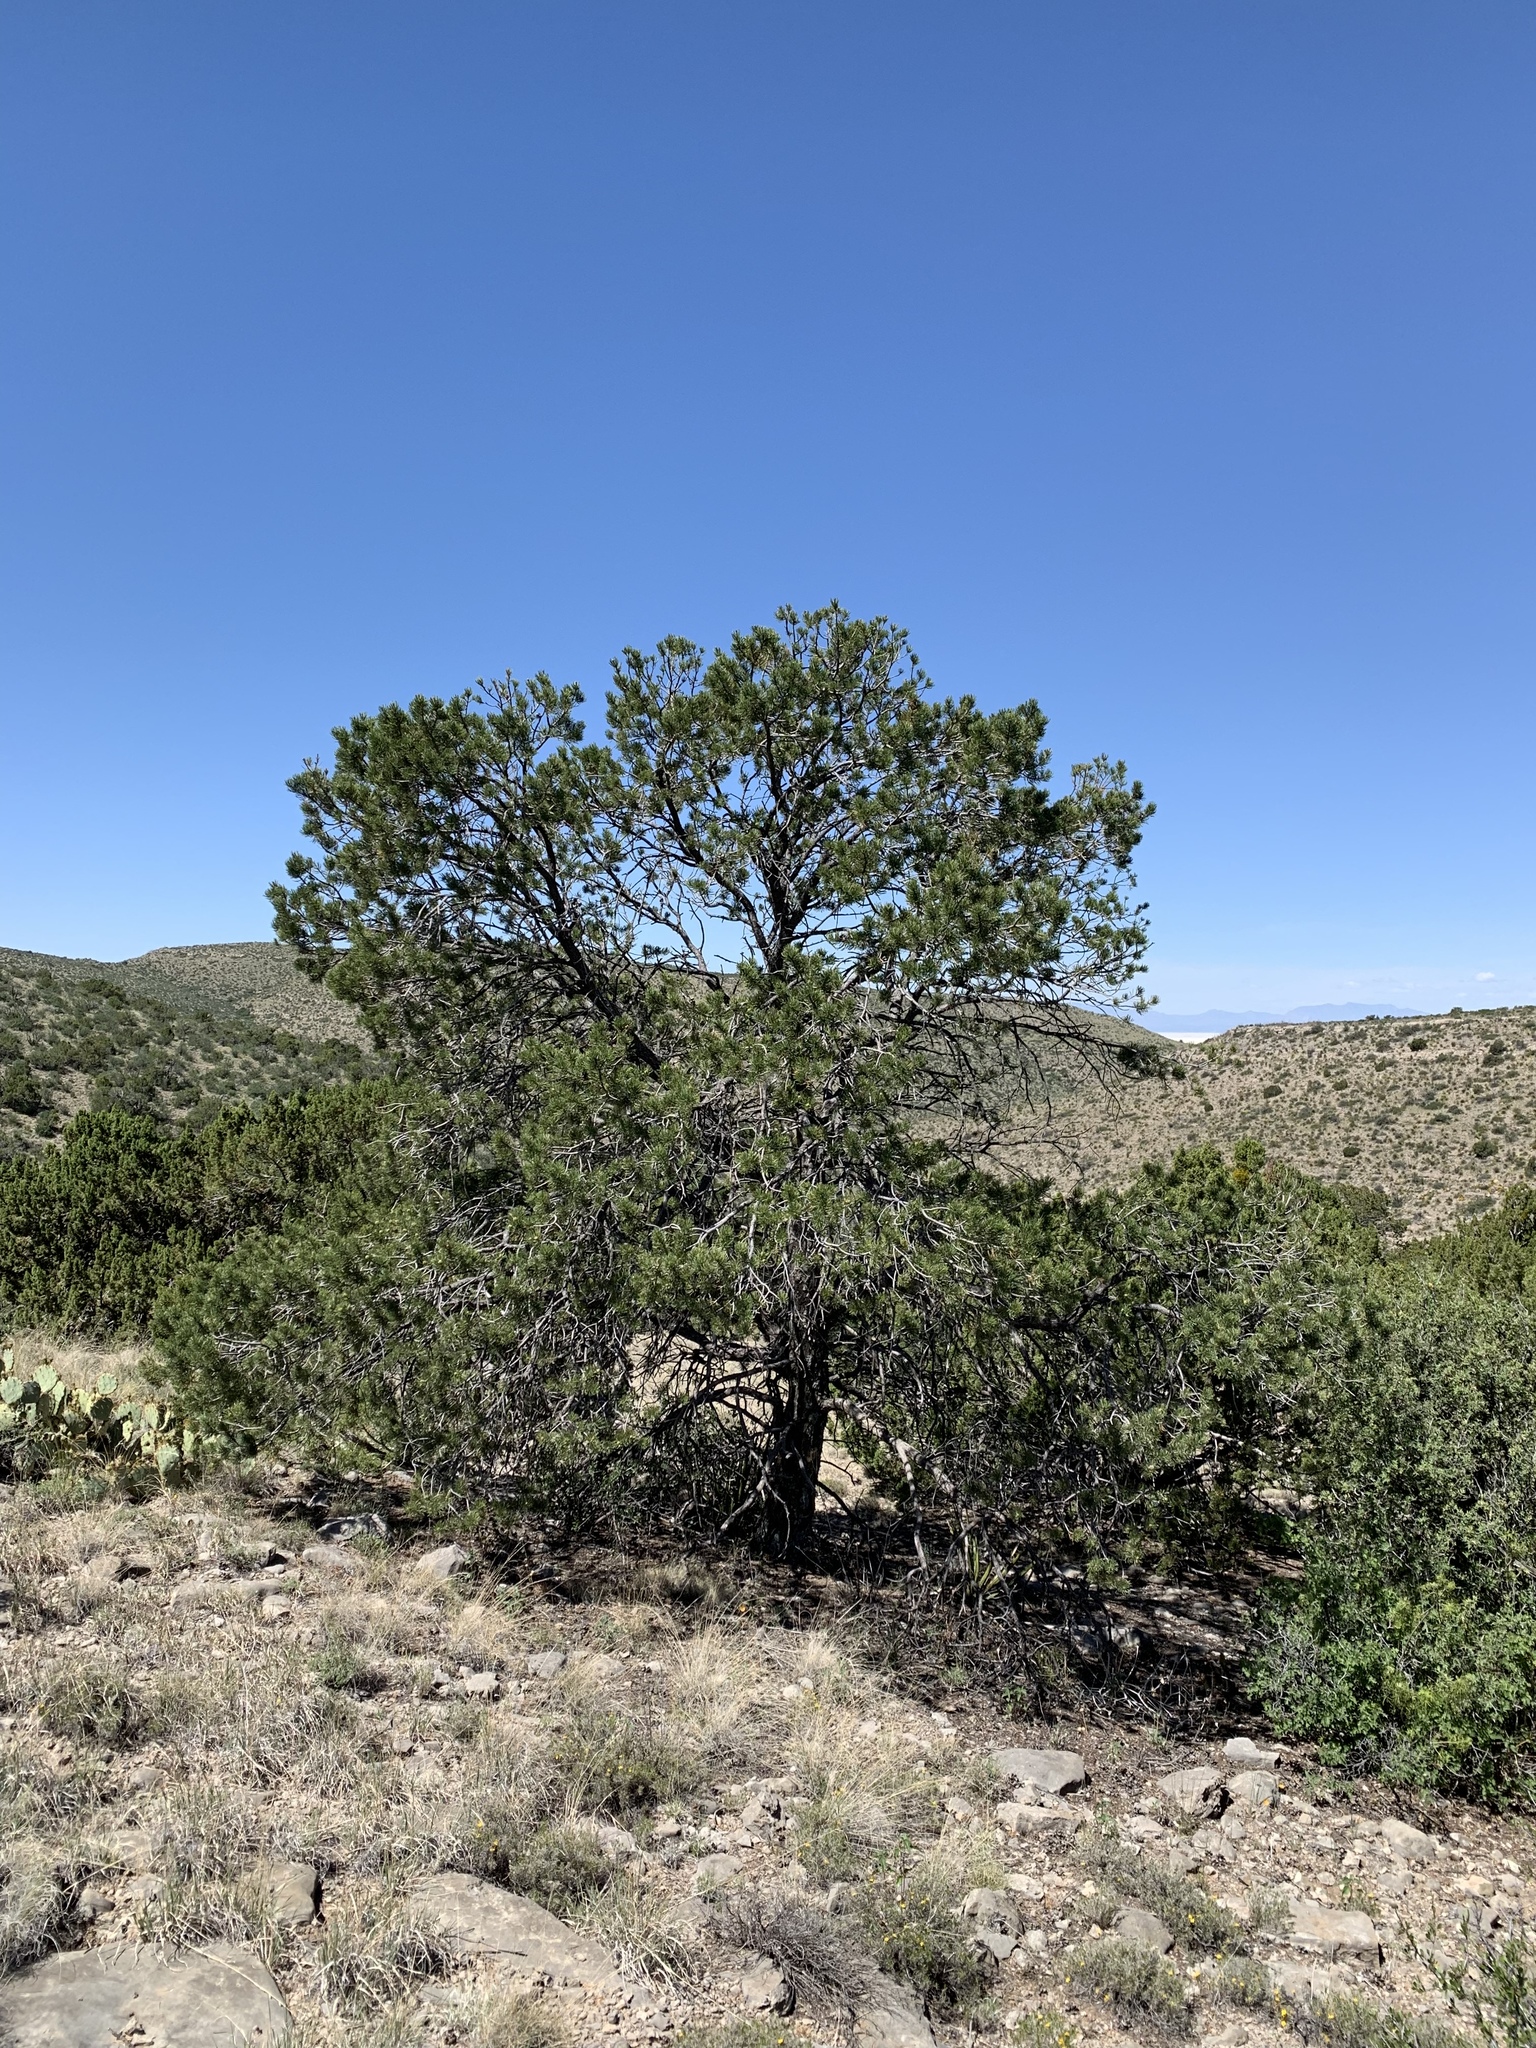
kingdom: Plantae
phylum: Tracheophyta
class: Pinopsida
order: Pinales
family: Pinaceae
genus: Pinus
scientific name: Pinus edulis
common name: Colorado pinyon
